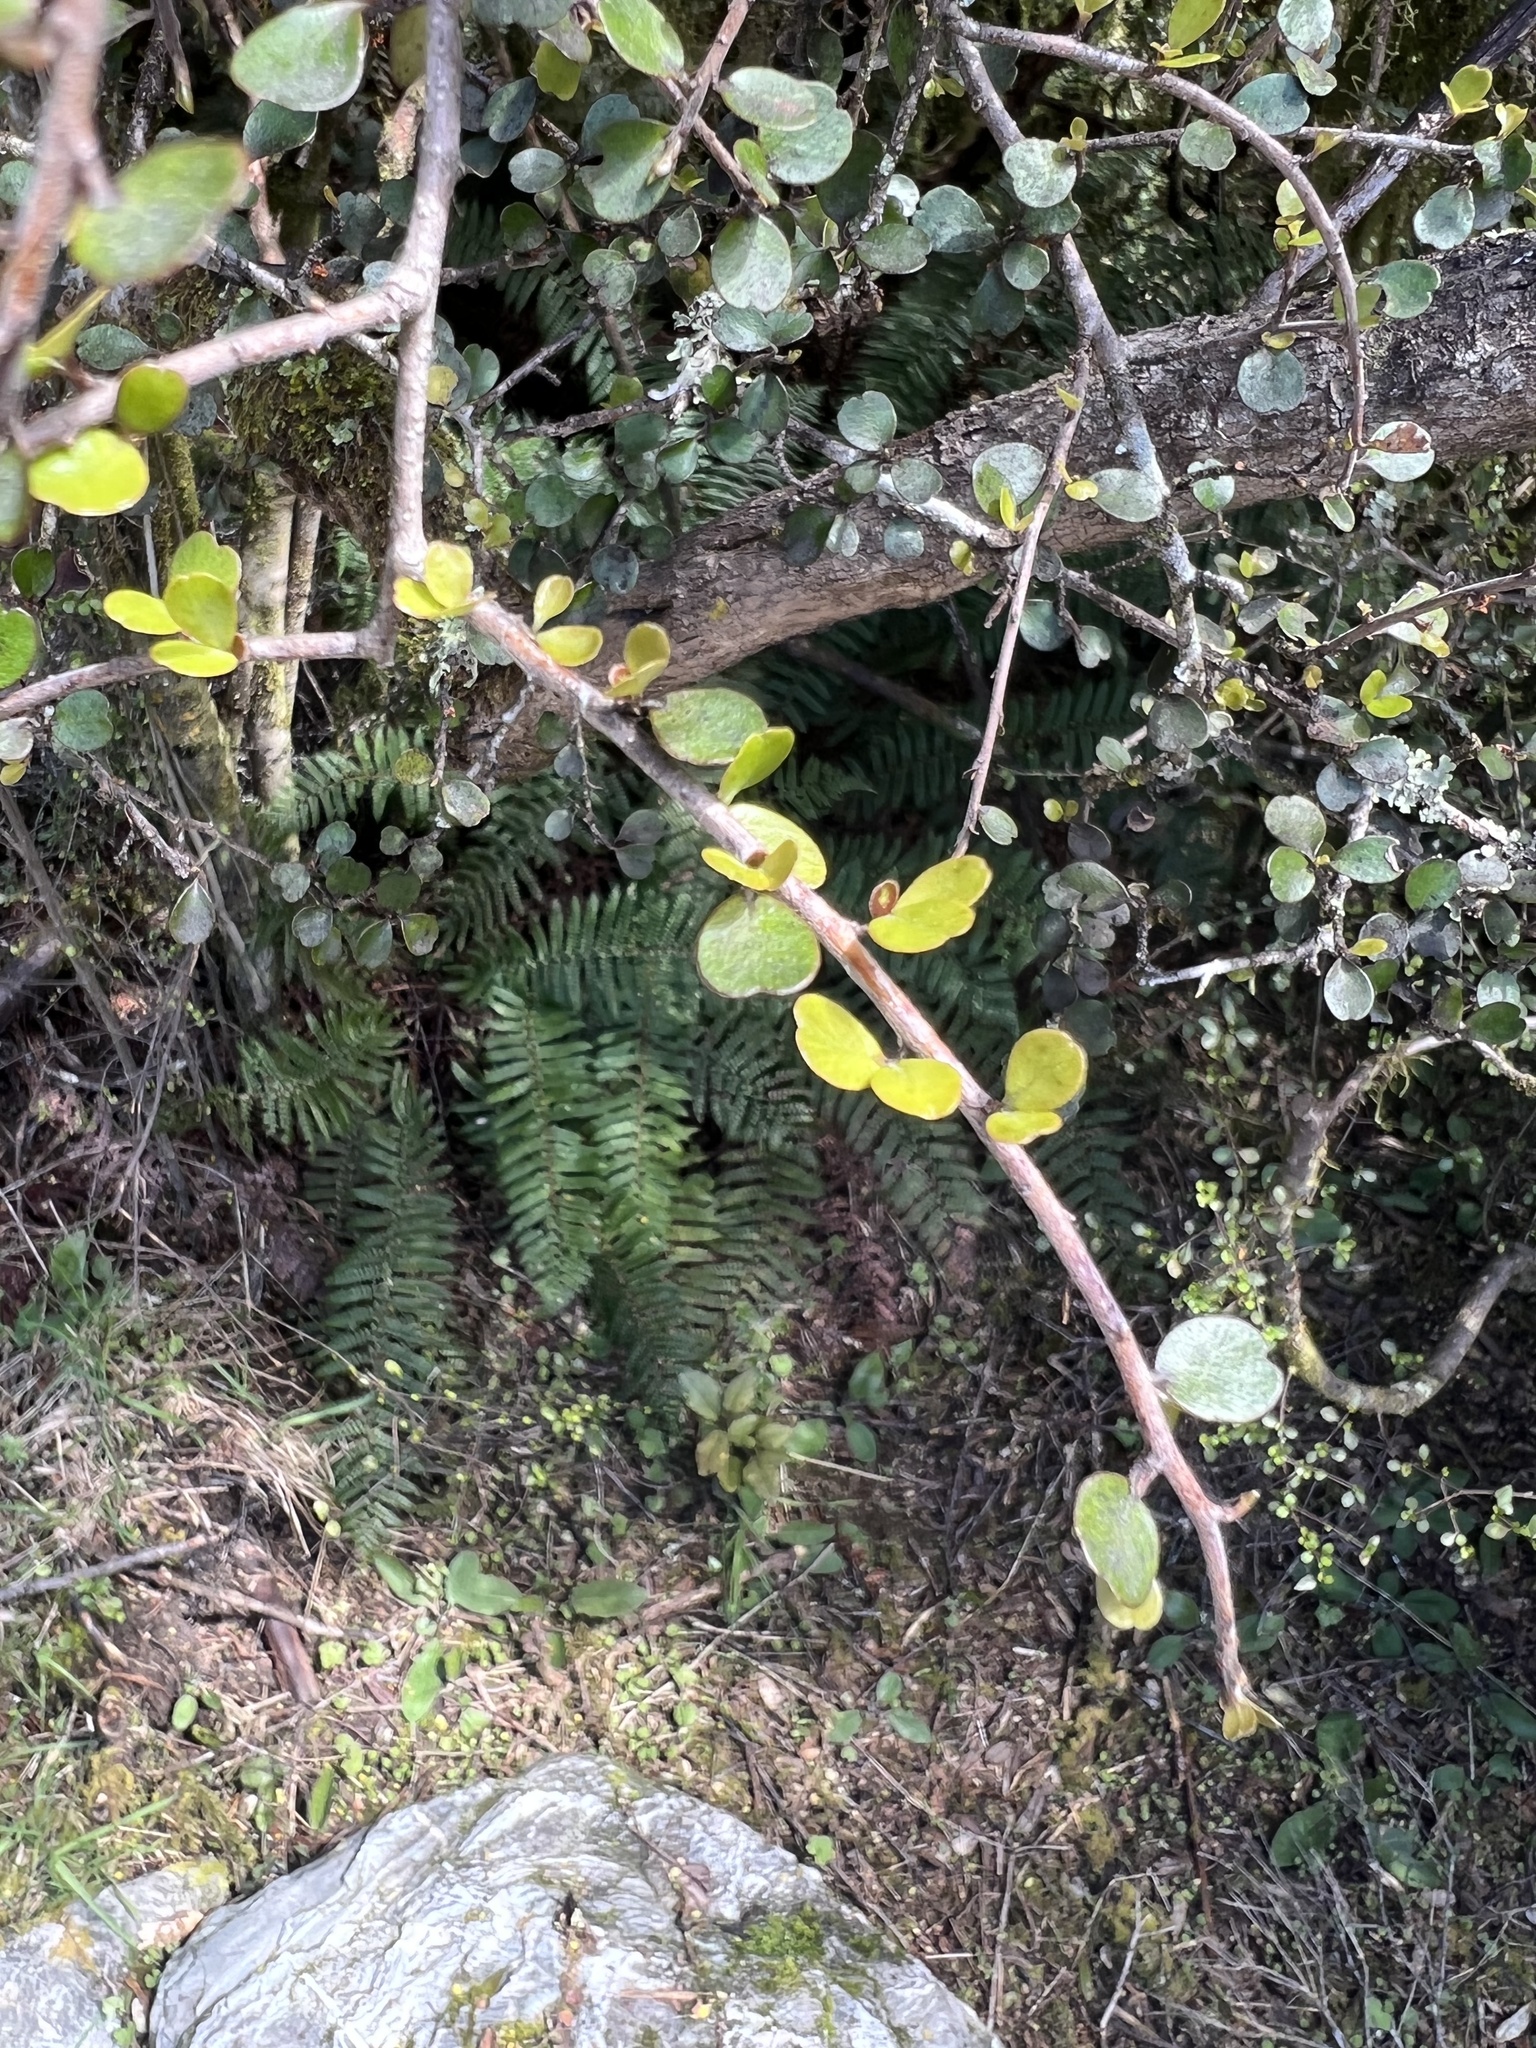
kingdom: Plantae
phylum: Tracheophyta
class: Magnoliopsida
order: Ericales
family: Primulaceae
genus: Myrsine
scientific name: Myrsine divaricata
